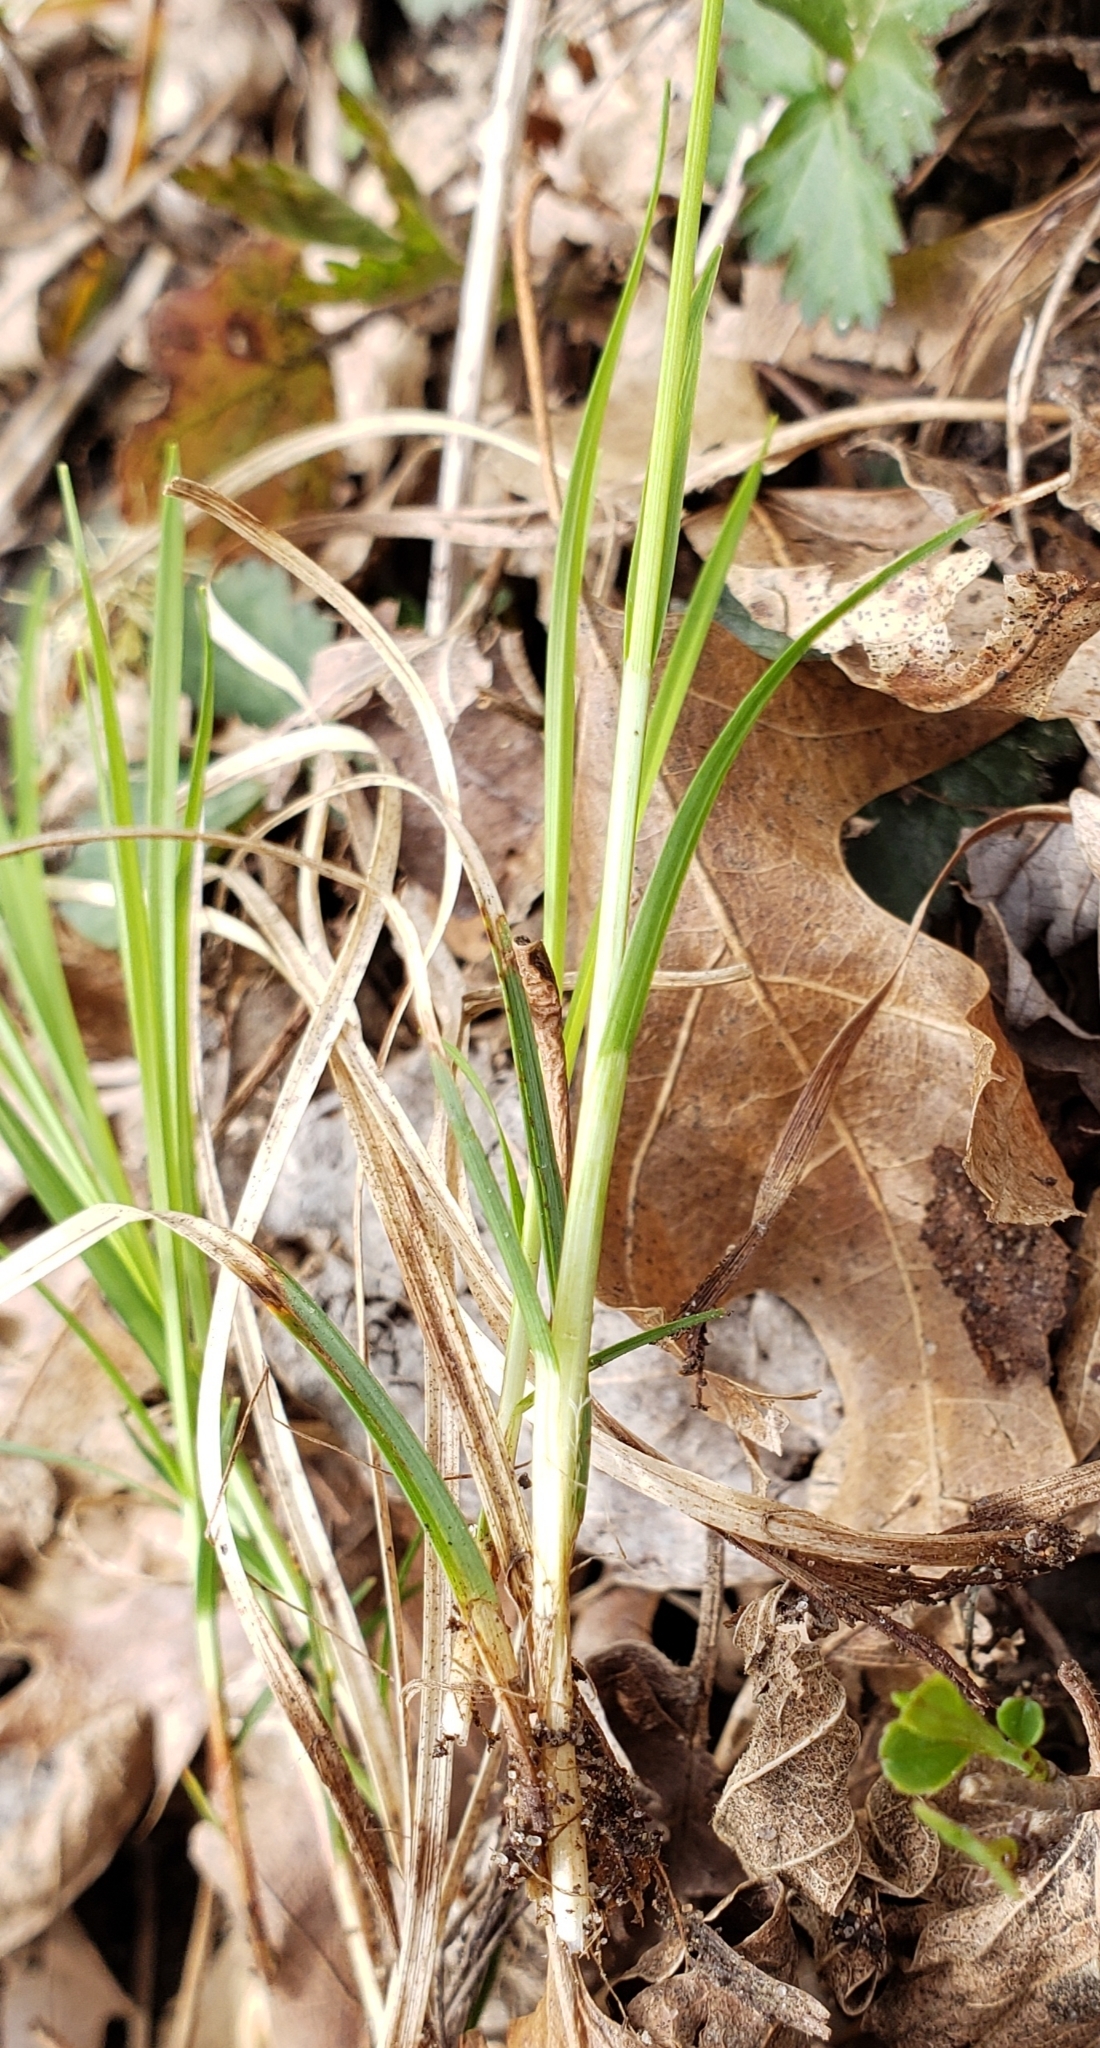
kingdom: Plantae
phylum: Tracheophyta
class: Liliopsida
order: Poales
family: Cyperaceae
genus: Carex
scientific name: Carex pensylvanica
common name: Common oak sedge
